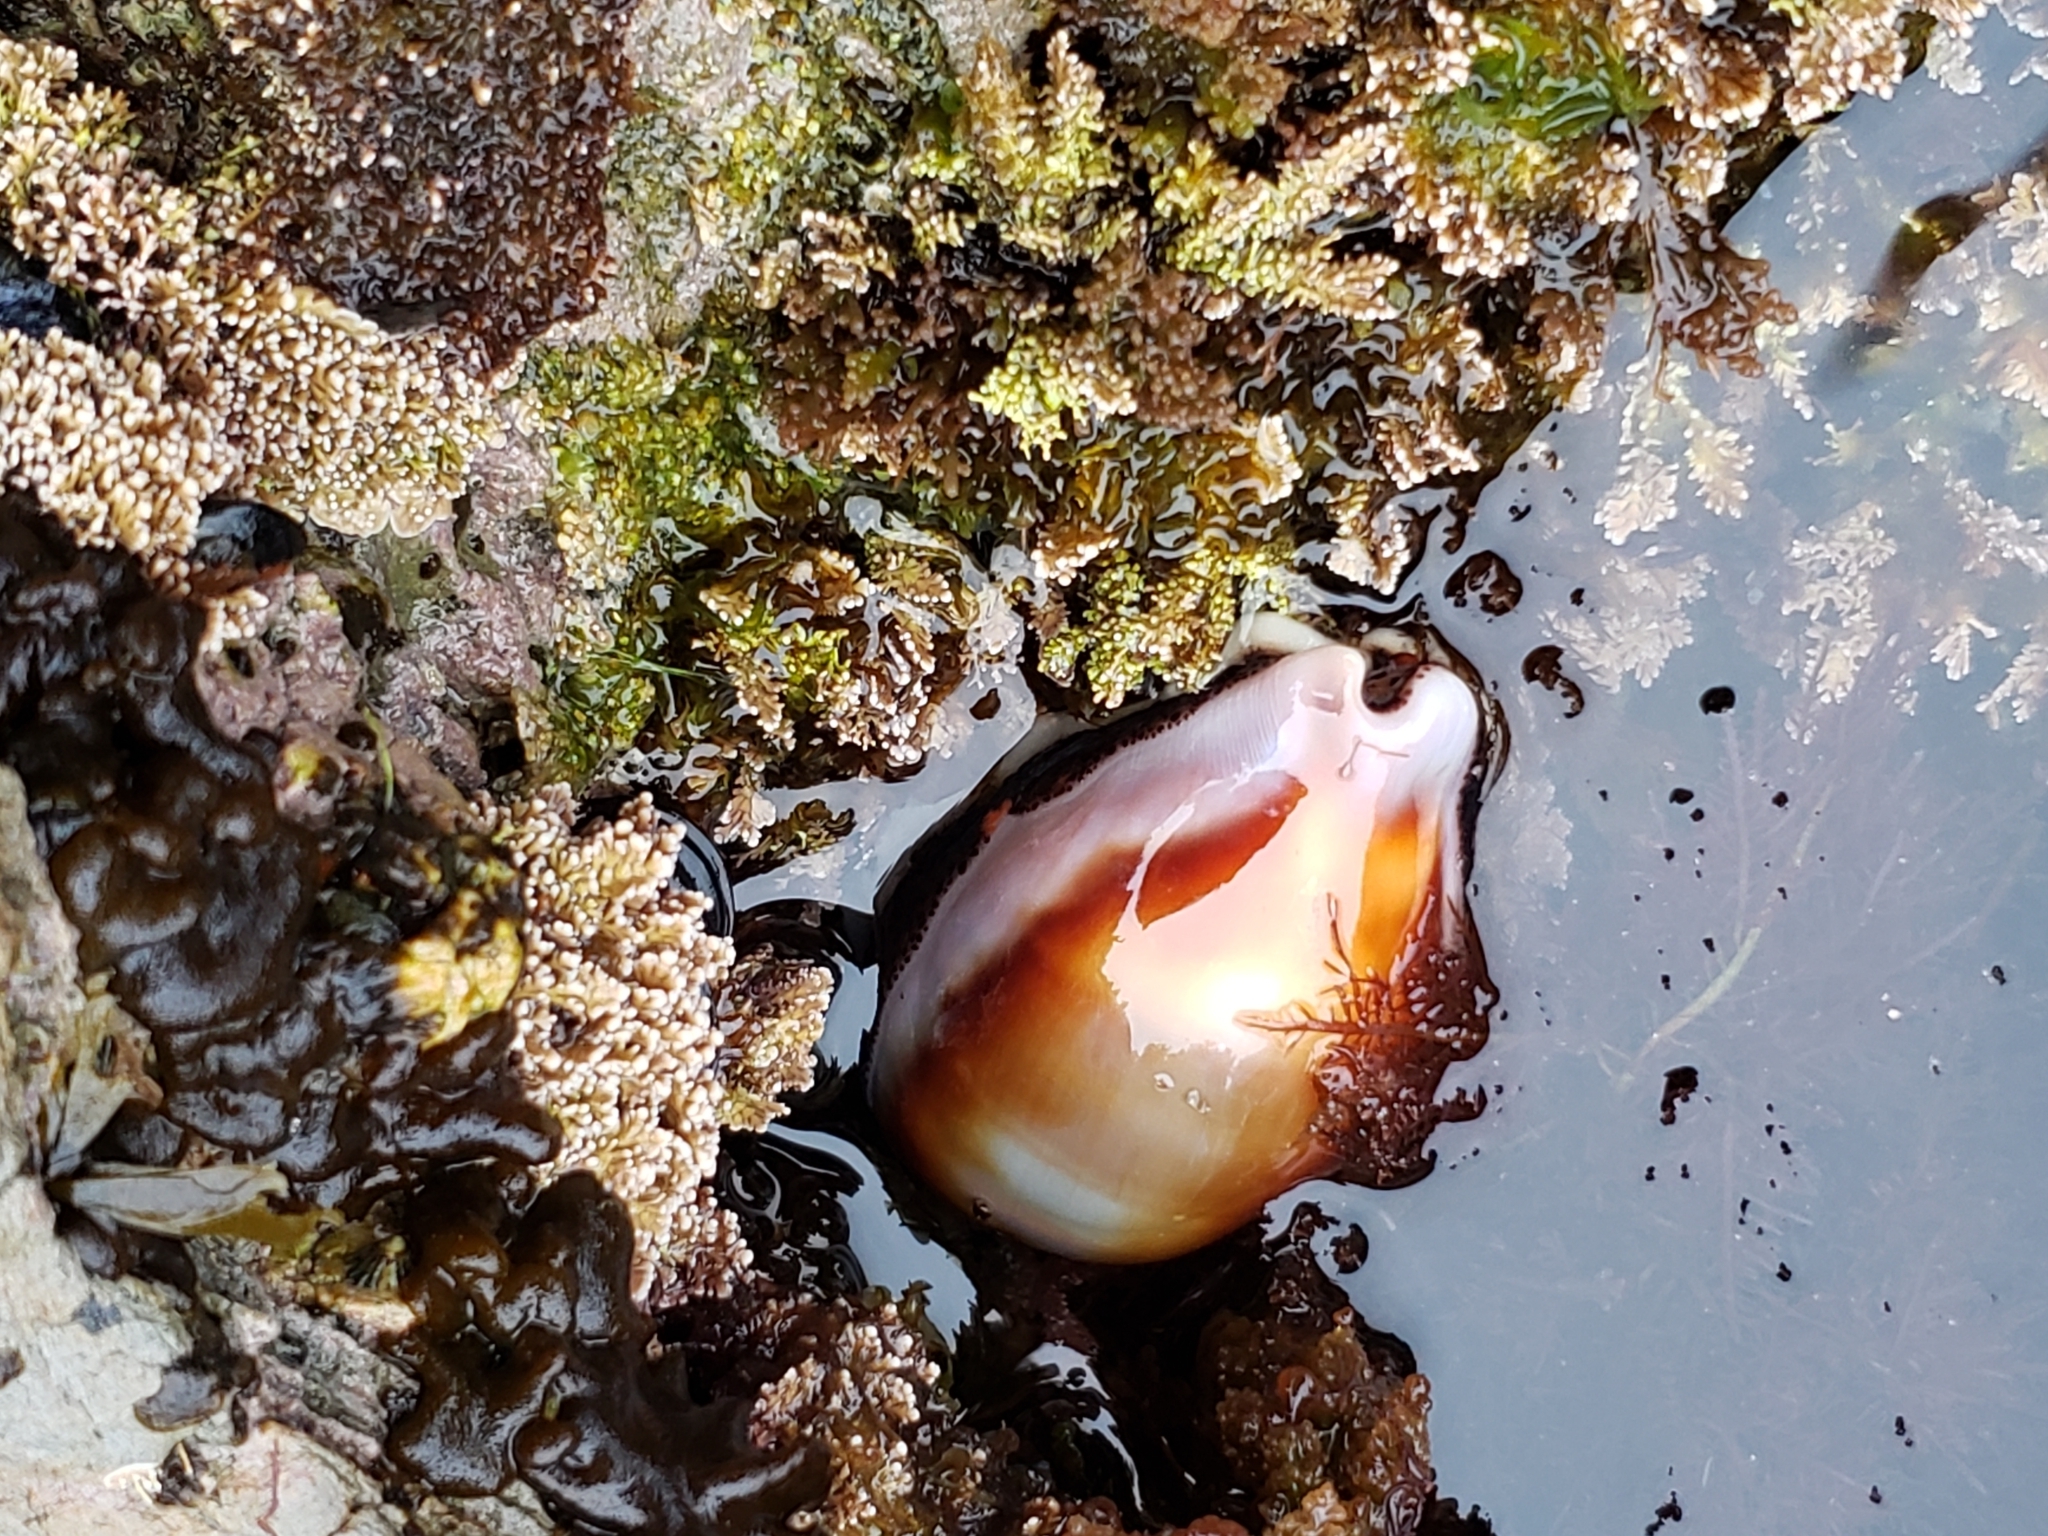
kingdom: Animalia
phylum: Mollusca
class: Gastropoda
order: Littorinimorpha
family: Cypraeidae
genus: Neobernaya
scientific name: Neobernaya spadicea
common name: Chestnut cowrie
